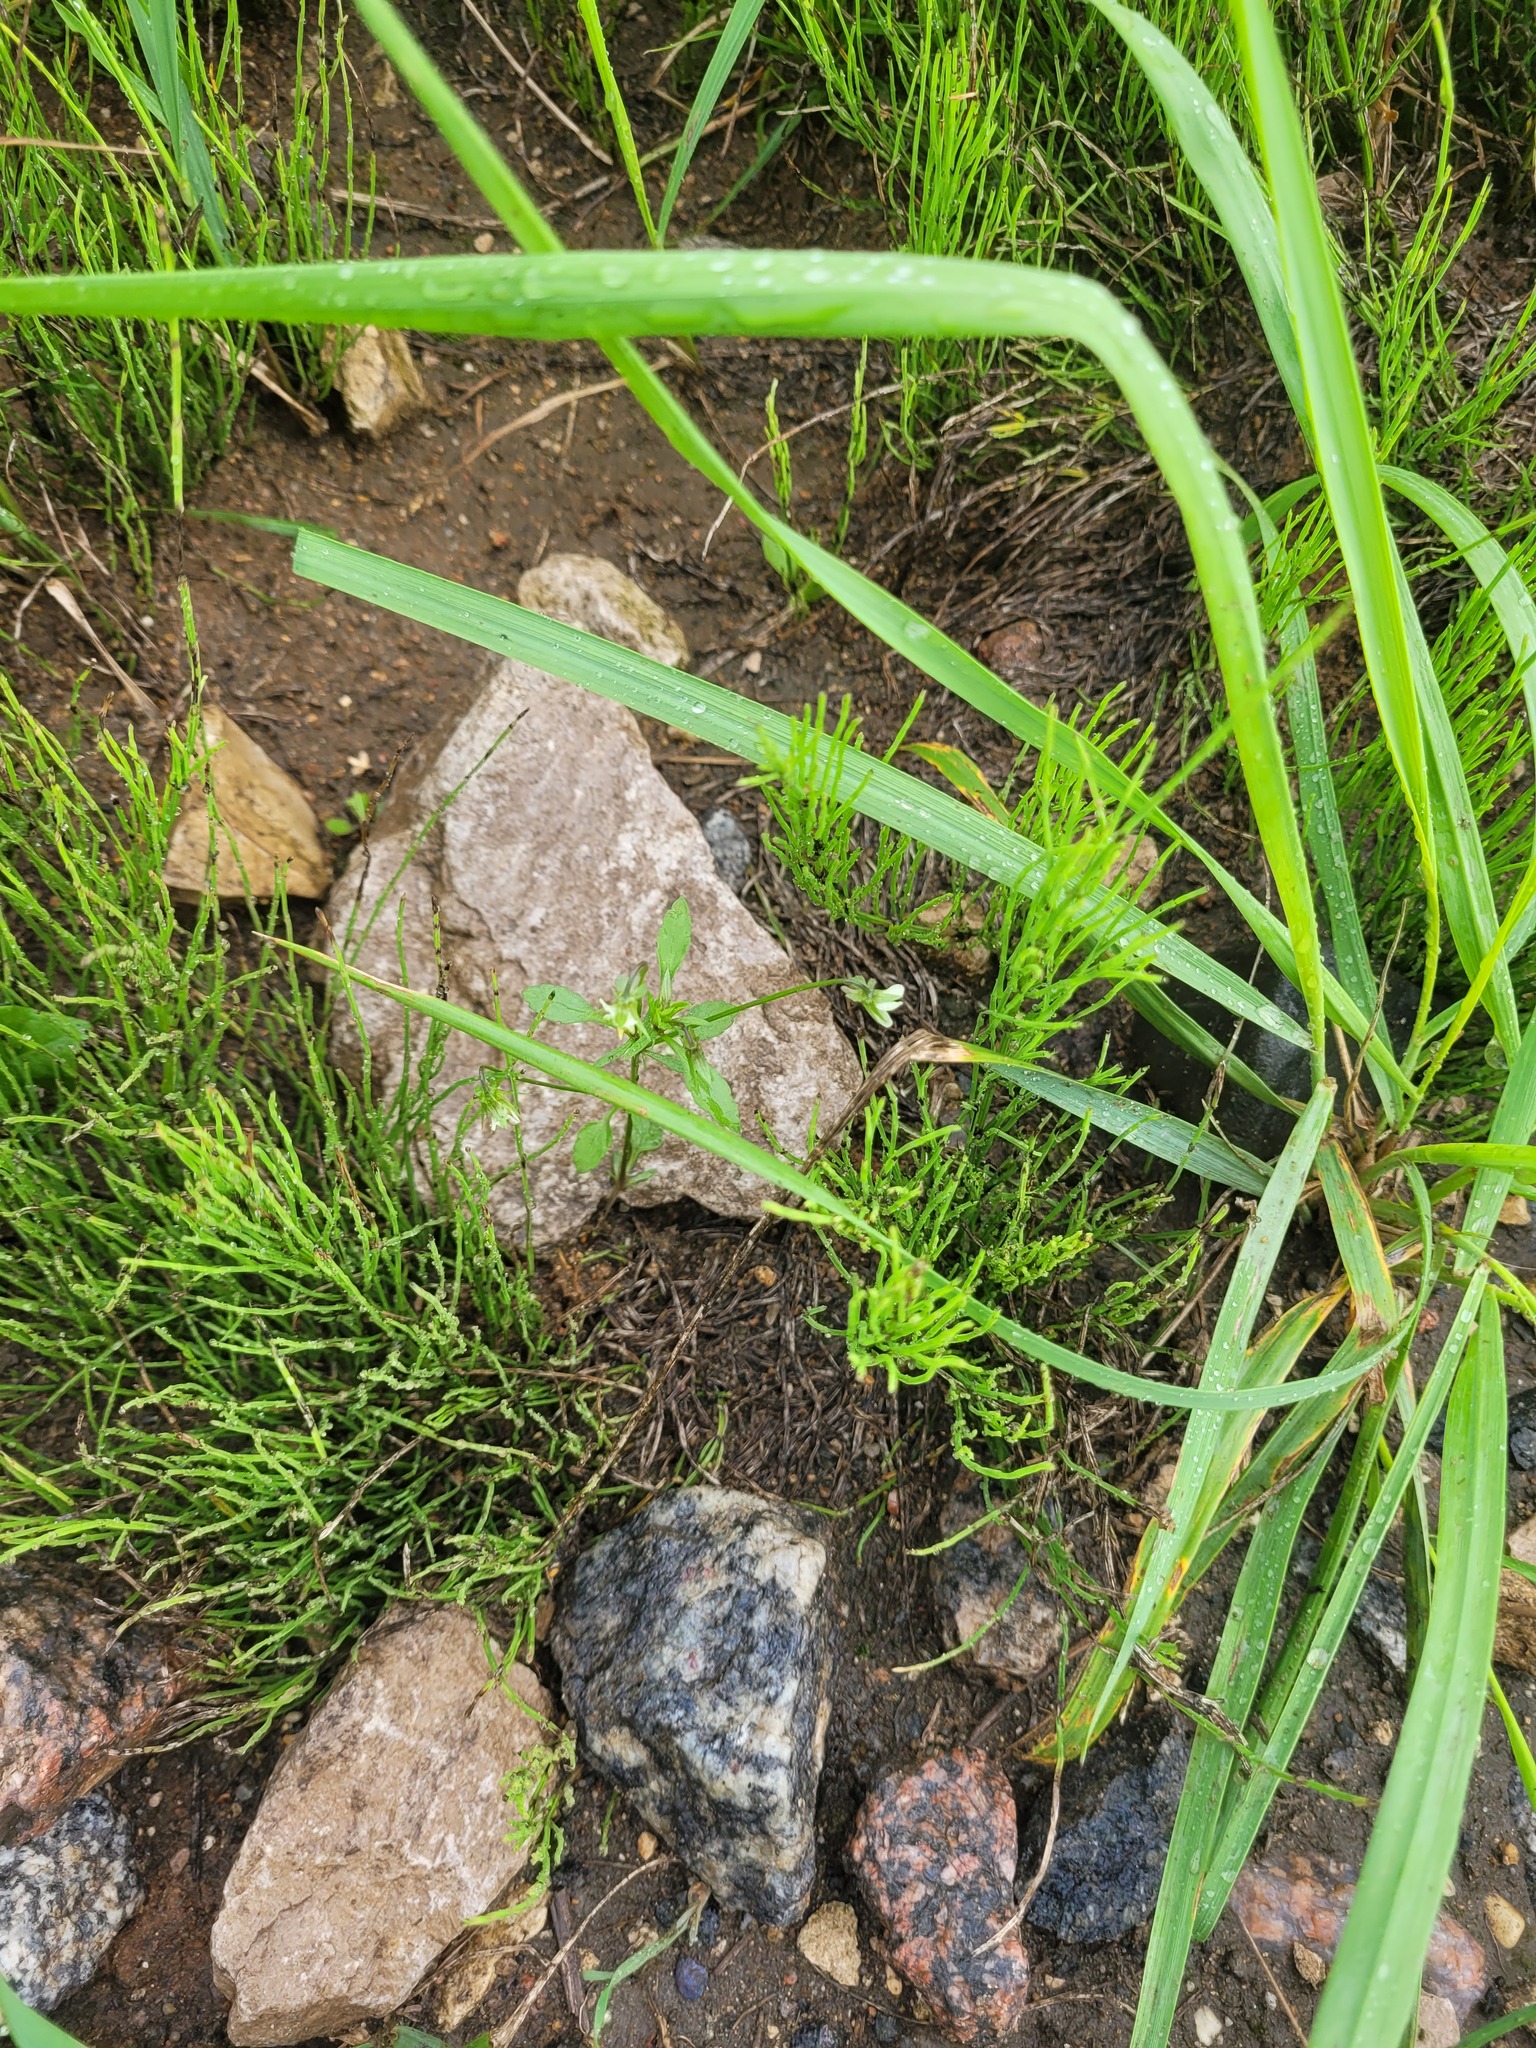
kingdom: Plantae
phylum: Tracheophyta
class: Magnoliopsida
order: Malpighiales
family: Violaceae
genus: Viola
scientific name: Viola arvensis
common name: Field pansy
